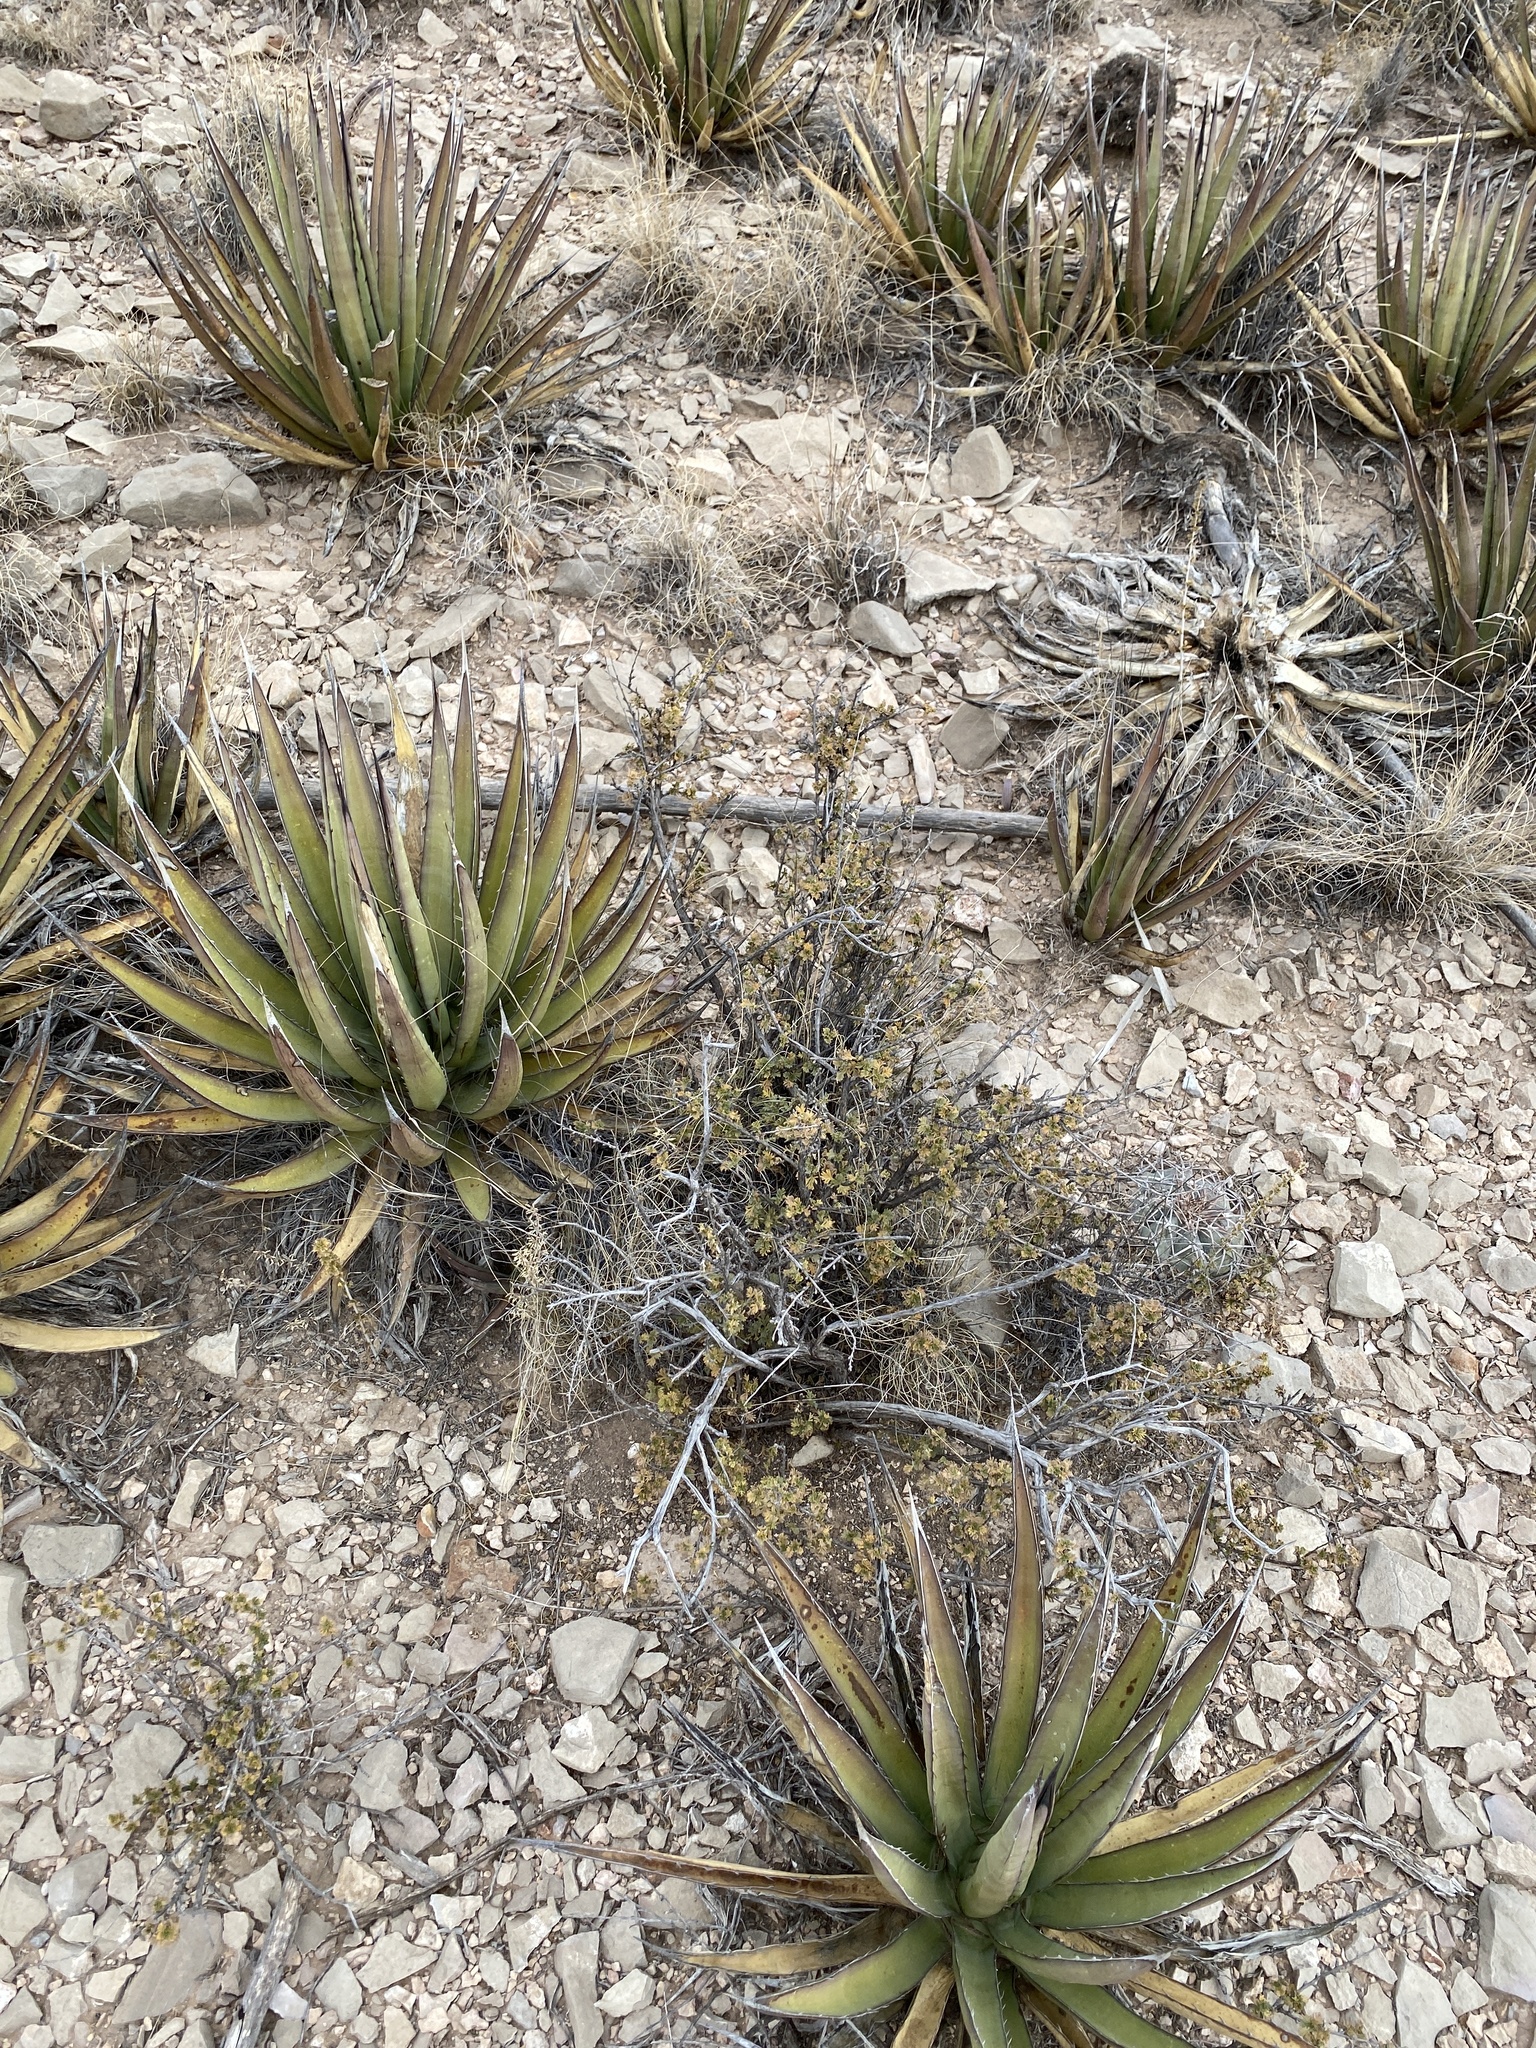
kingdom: Plantae
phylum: Tracheophyta
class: Magnoliopsida
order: Rosales
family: Rosaceae
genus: Fallugia
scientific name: Fallugia paradoxa
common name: Apache-plume
